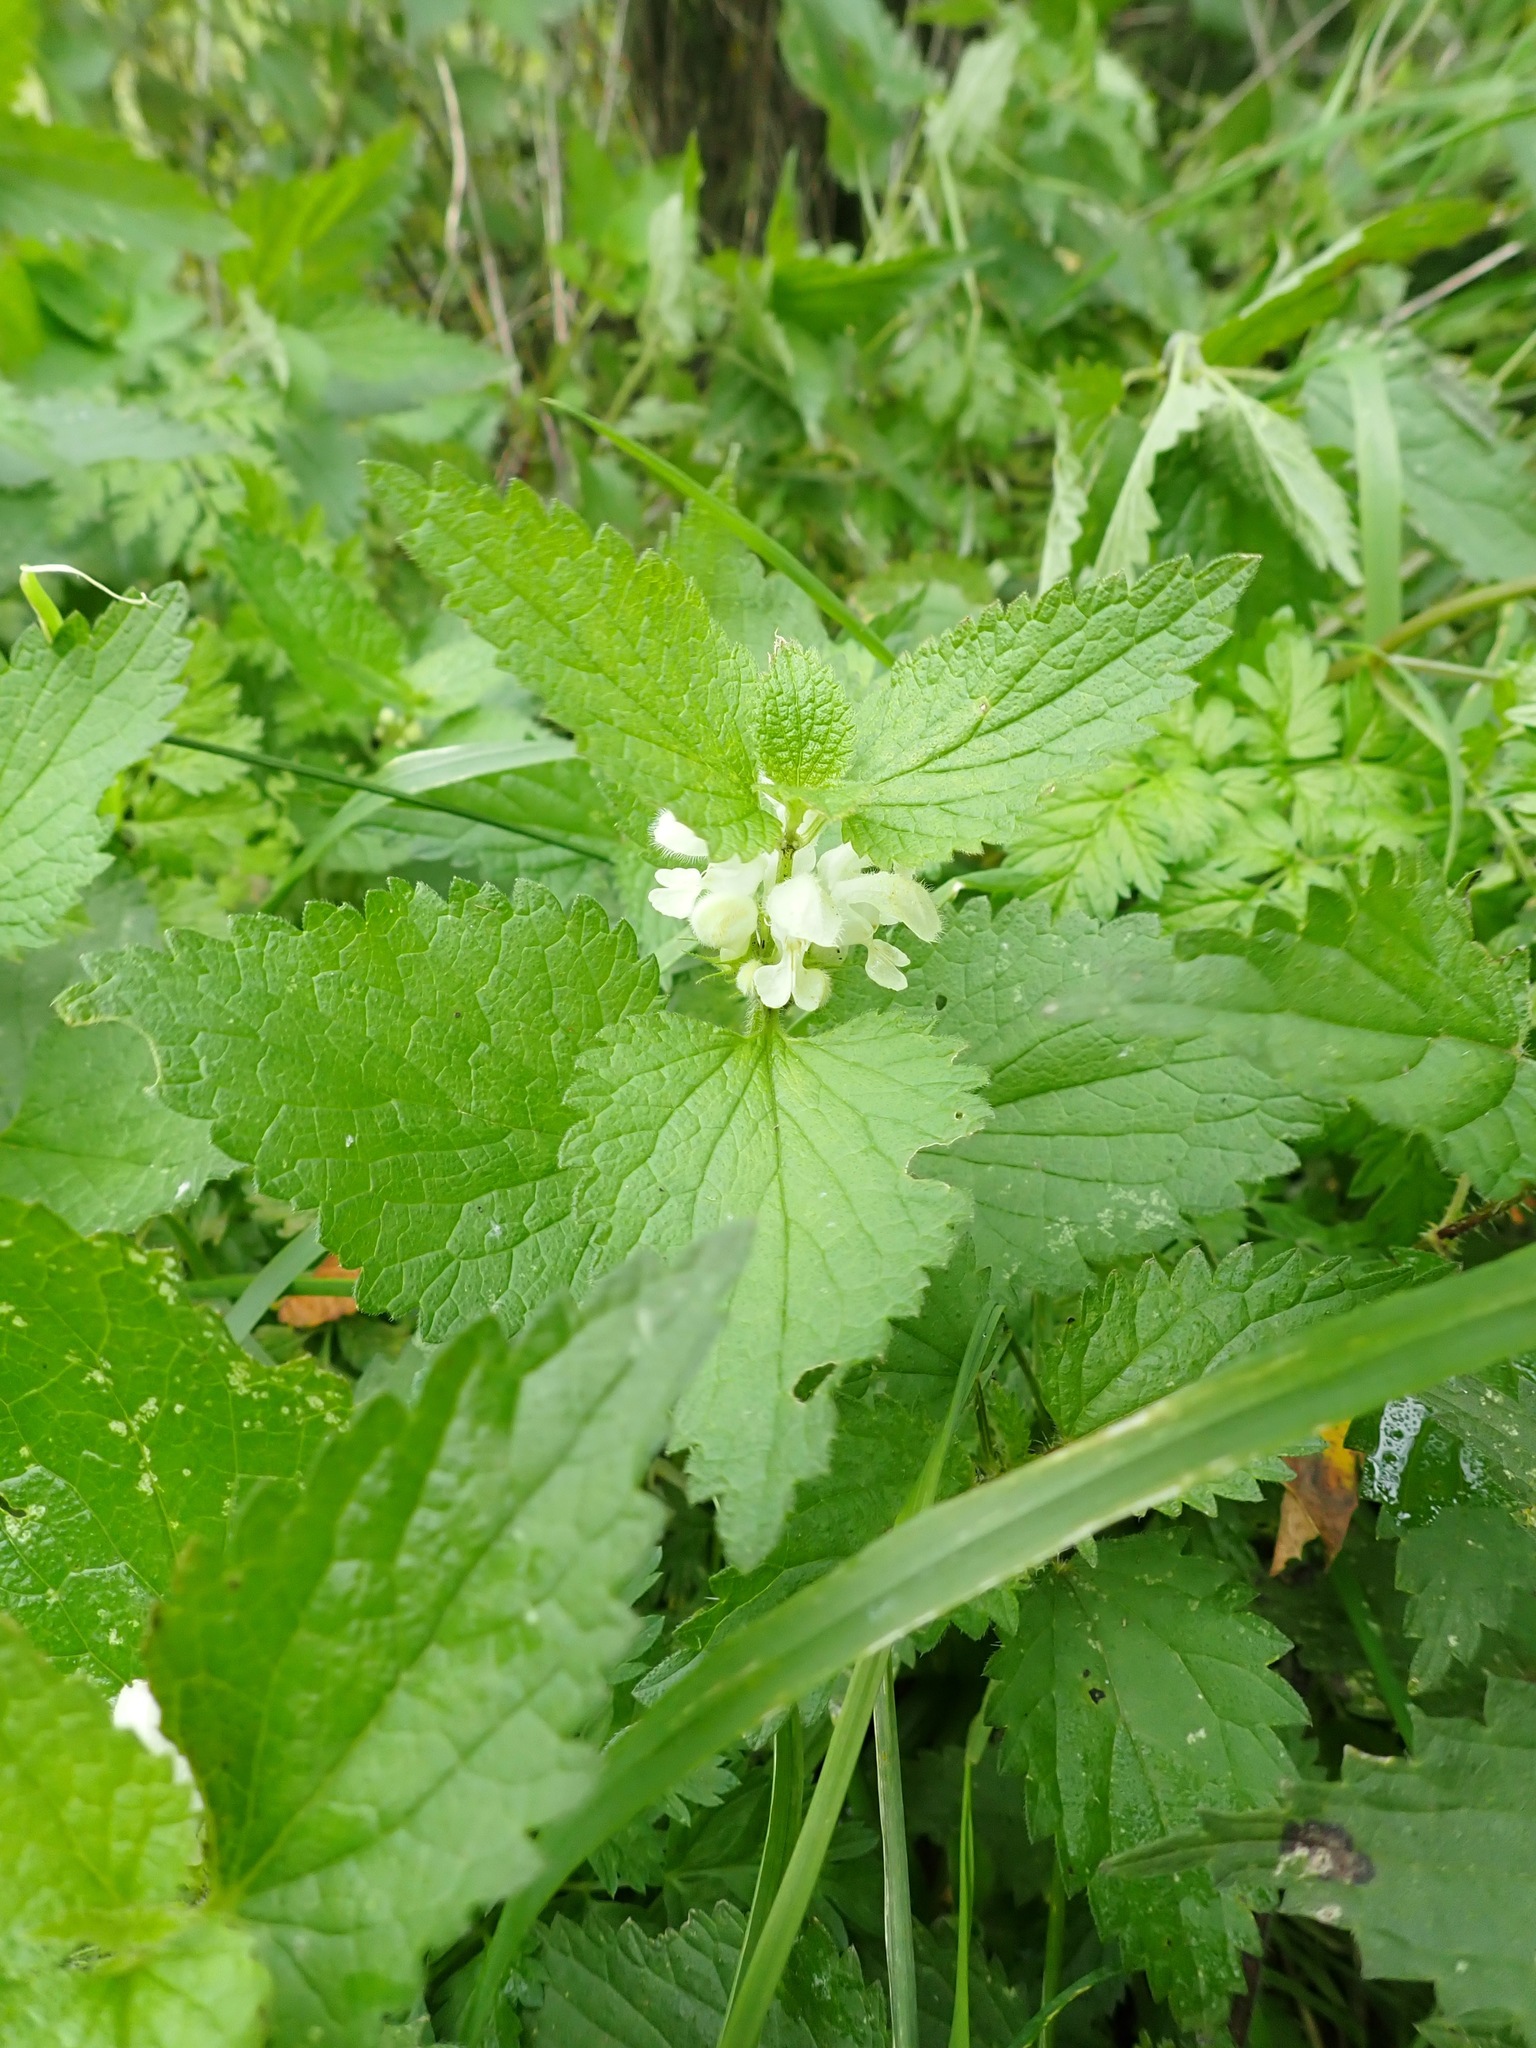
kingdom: Plantae
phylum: Tracheophyta
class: Magnoliopsida
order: Lamiales
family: Lamiaceae
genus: Lamium
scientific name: Lamium album
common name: White dead-nettle
